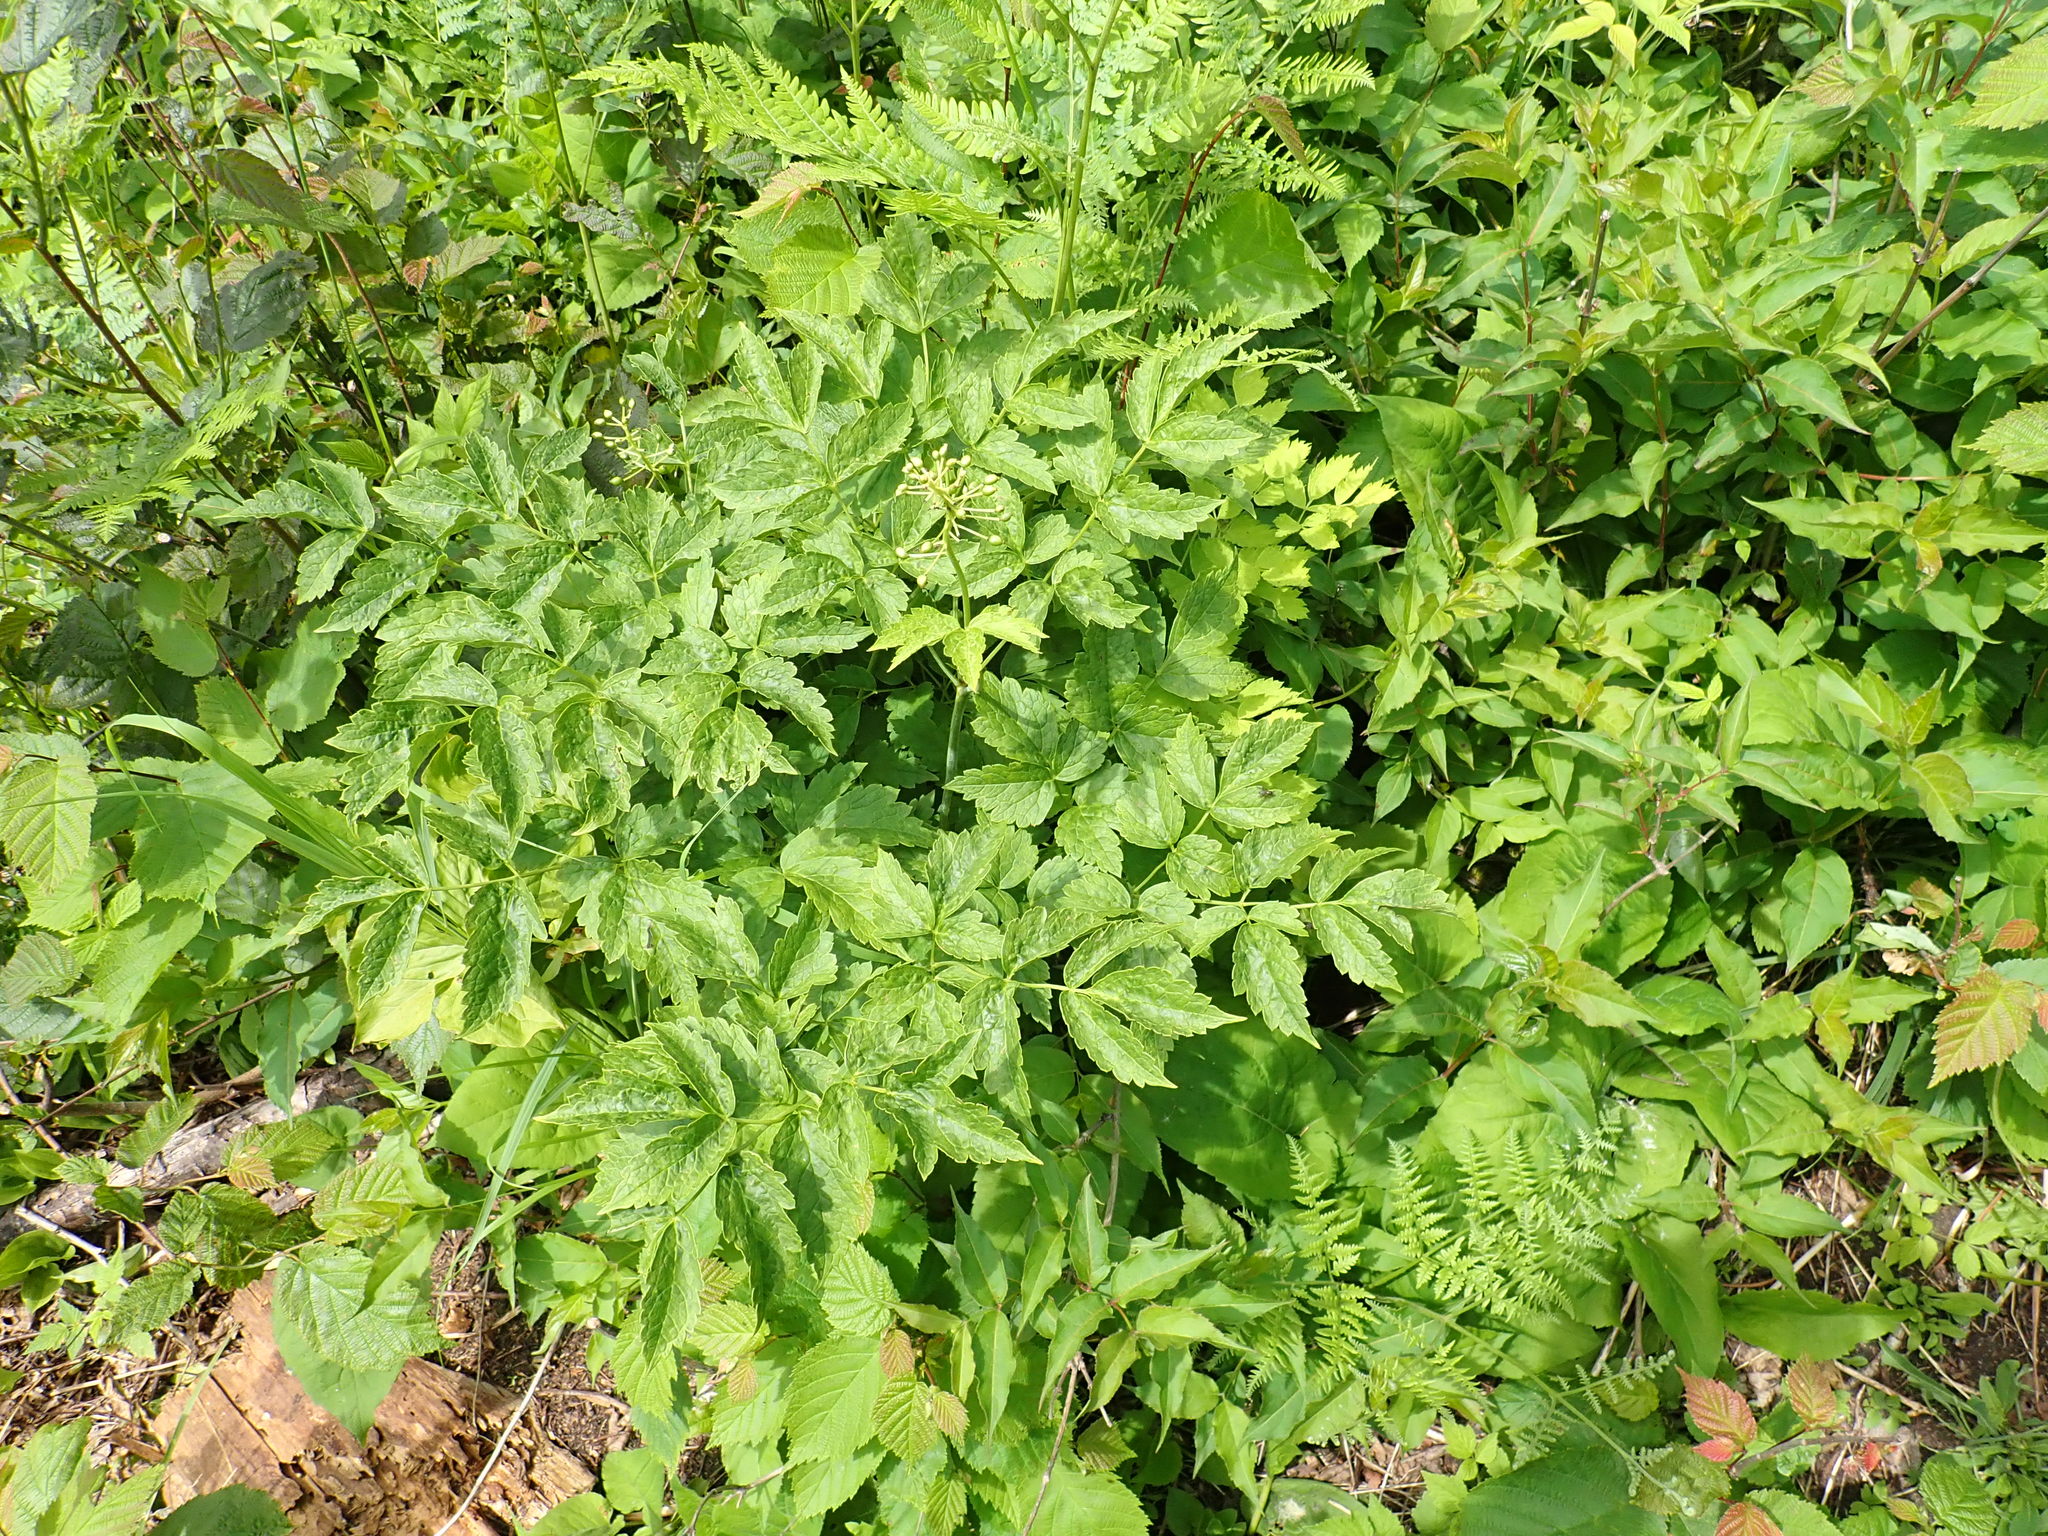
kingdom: Plantae
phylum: Tracheophyta
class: Magnoliopsida
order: Ranunculales
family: Ranunculaceae
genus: Actaea
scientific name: Actaea rubra
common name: Red baneberry
